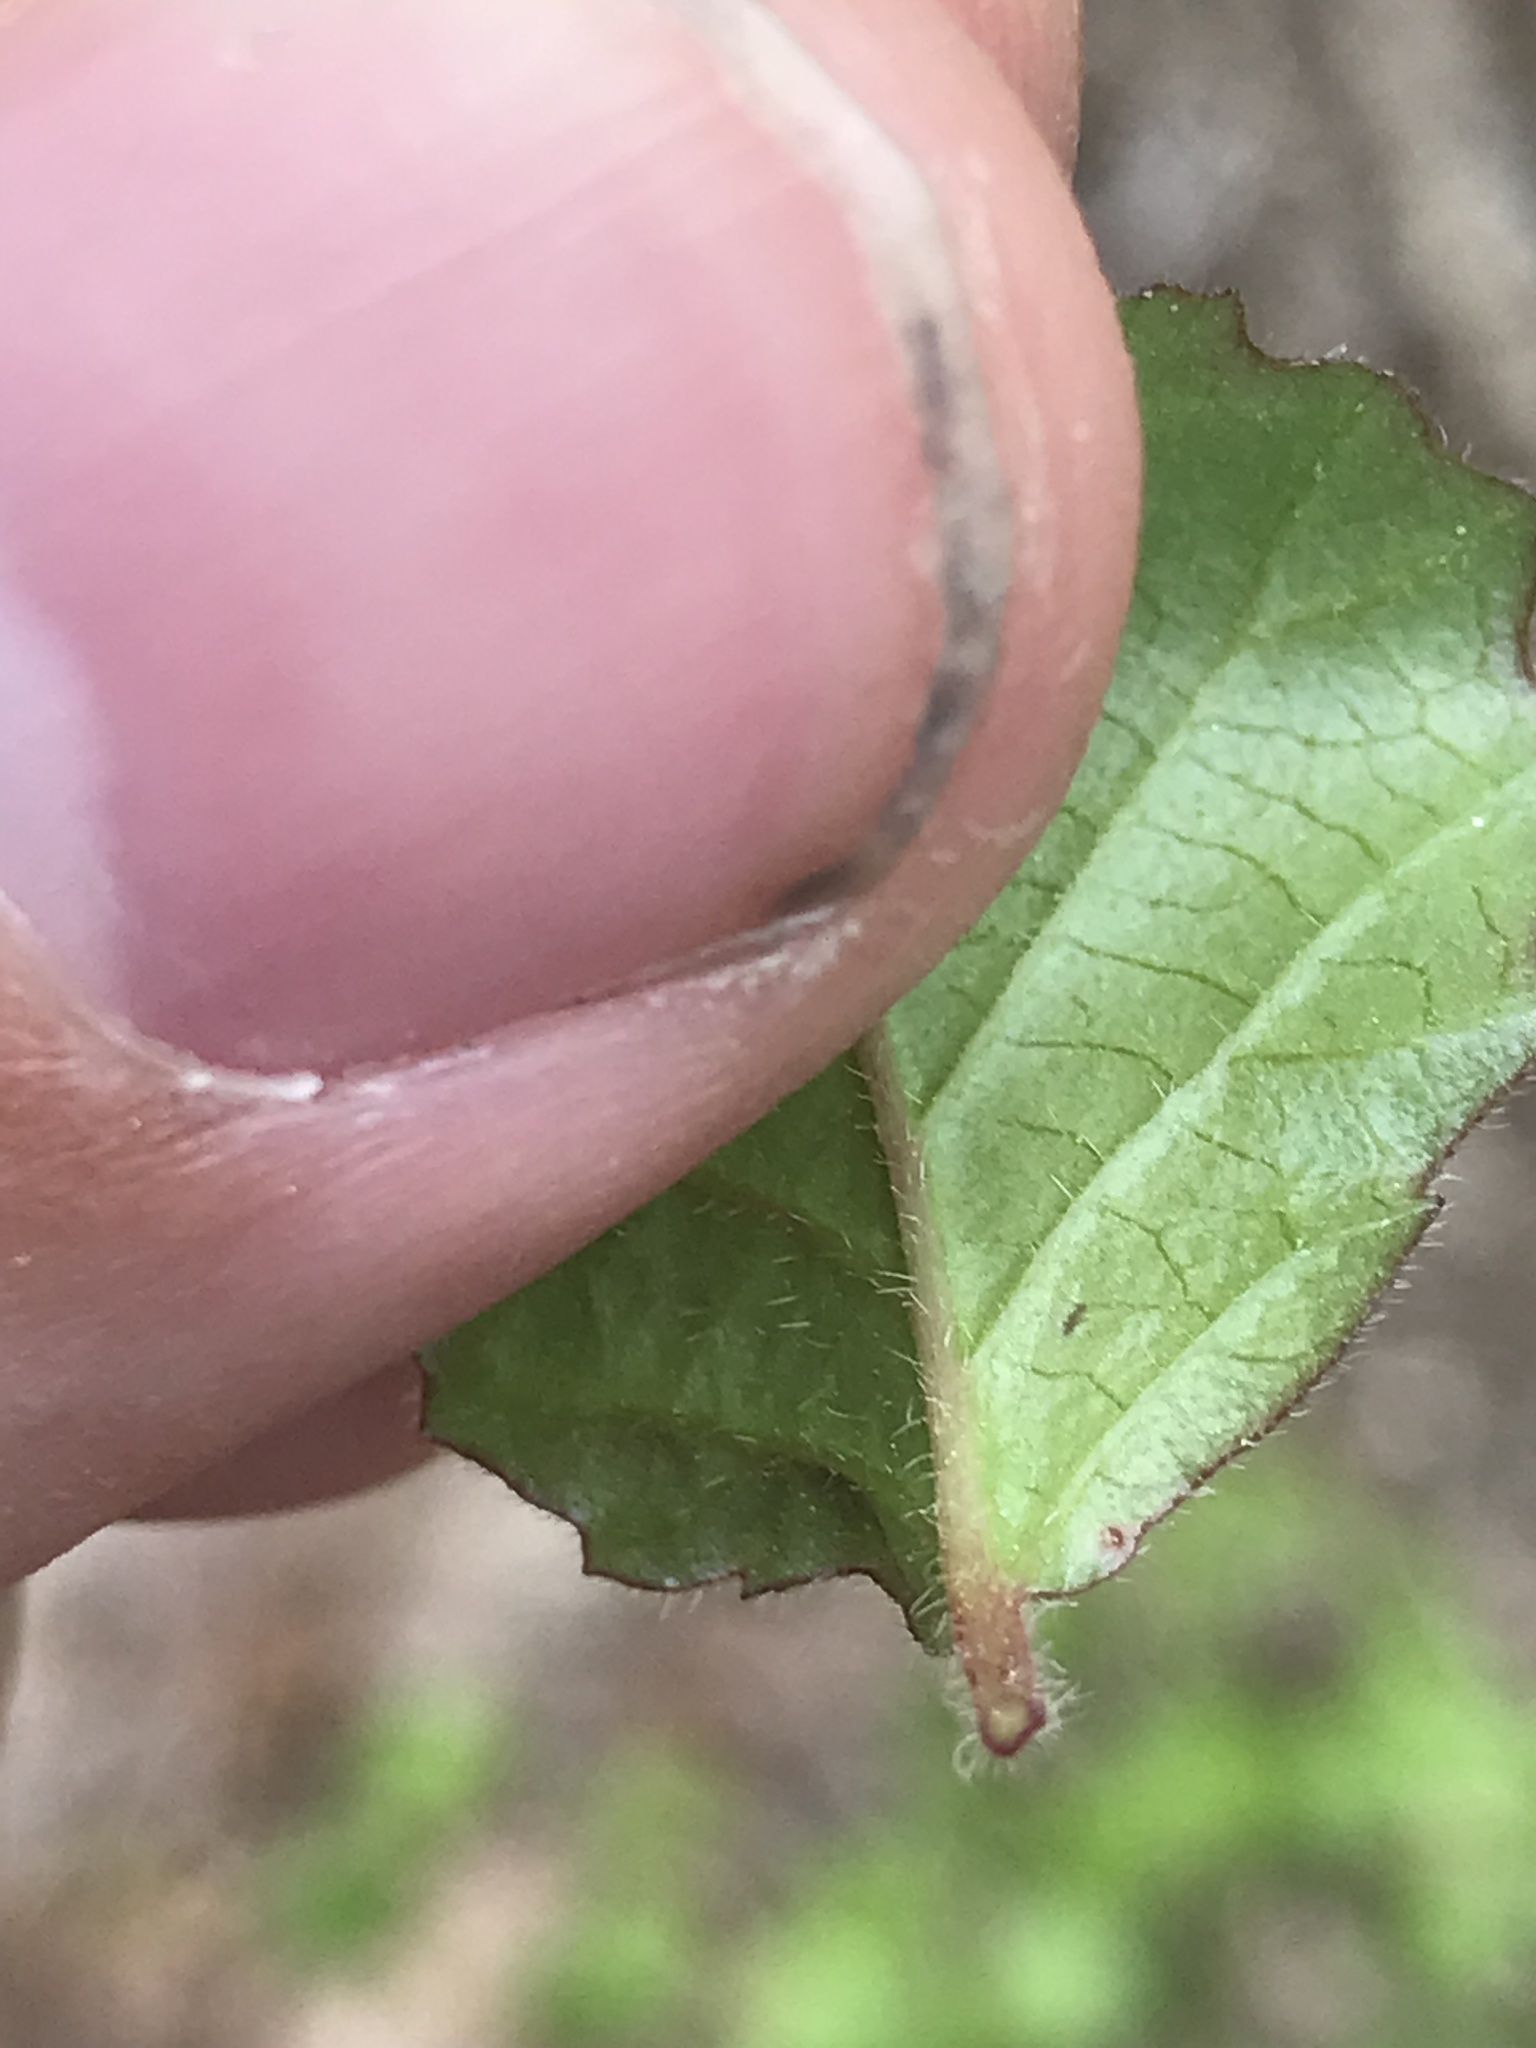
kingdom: Plantae
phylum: Tracheophyta
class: Magnoliopsida
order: Dipsacales
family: Viburnaceae
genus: Viburnum
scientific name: Viburnum dilatatum
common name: Linden arrowwood
